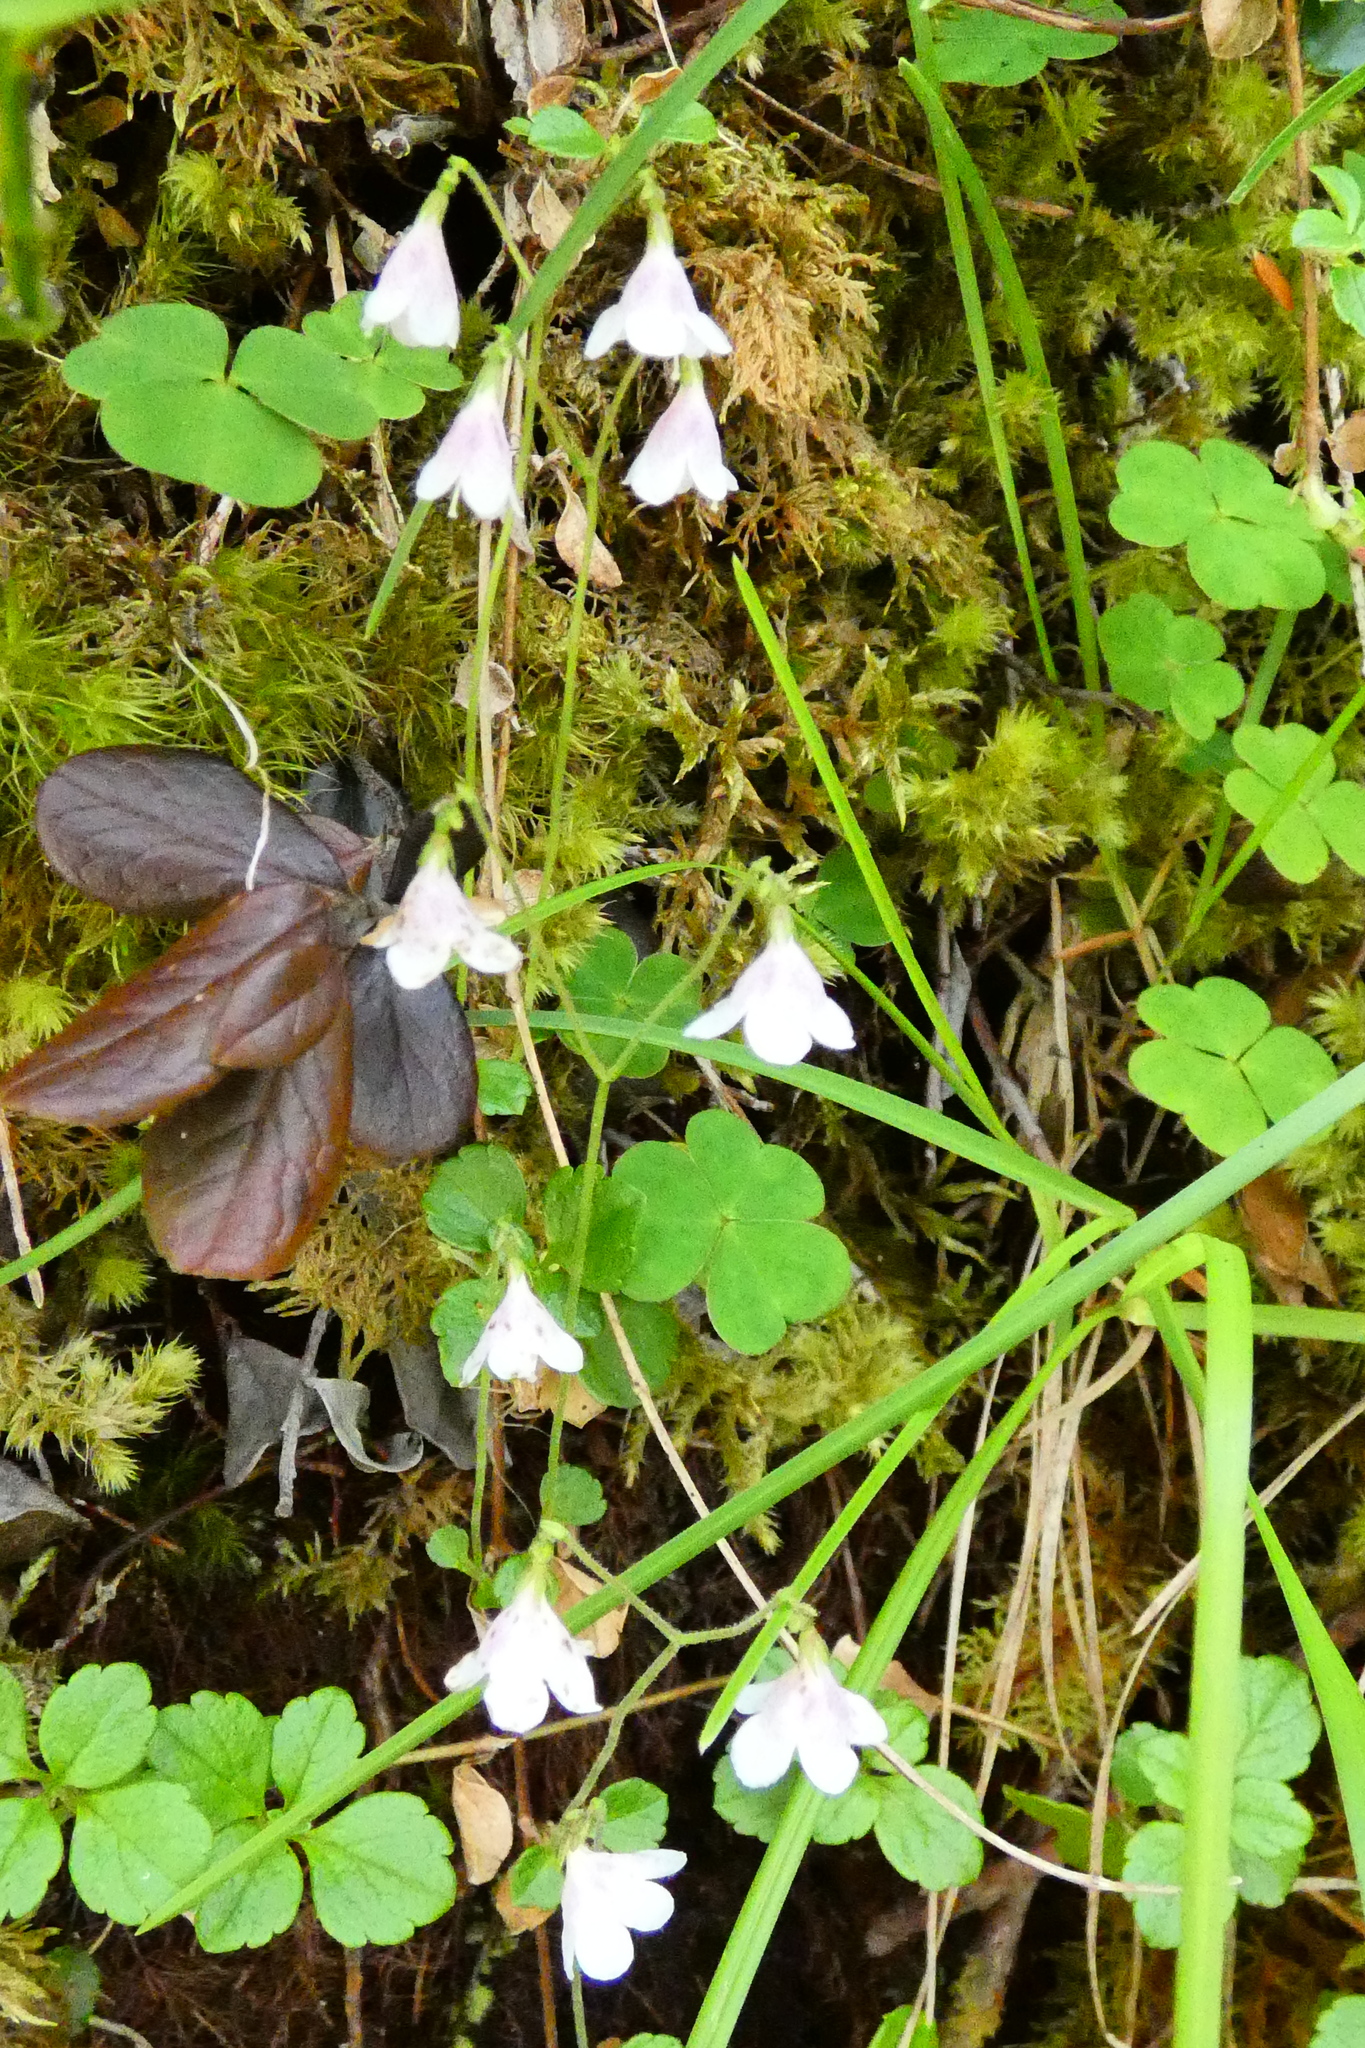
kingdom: Plantae
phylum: Tracheophyta
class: Magnoliopsida
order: Dipsacales
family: Caprifoliaceae
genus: Linnaea
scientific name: Linnaea borealis
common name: Twinflower
